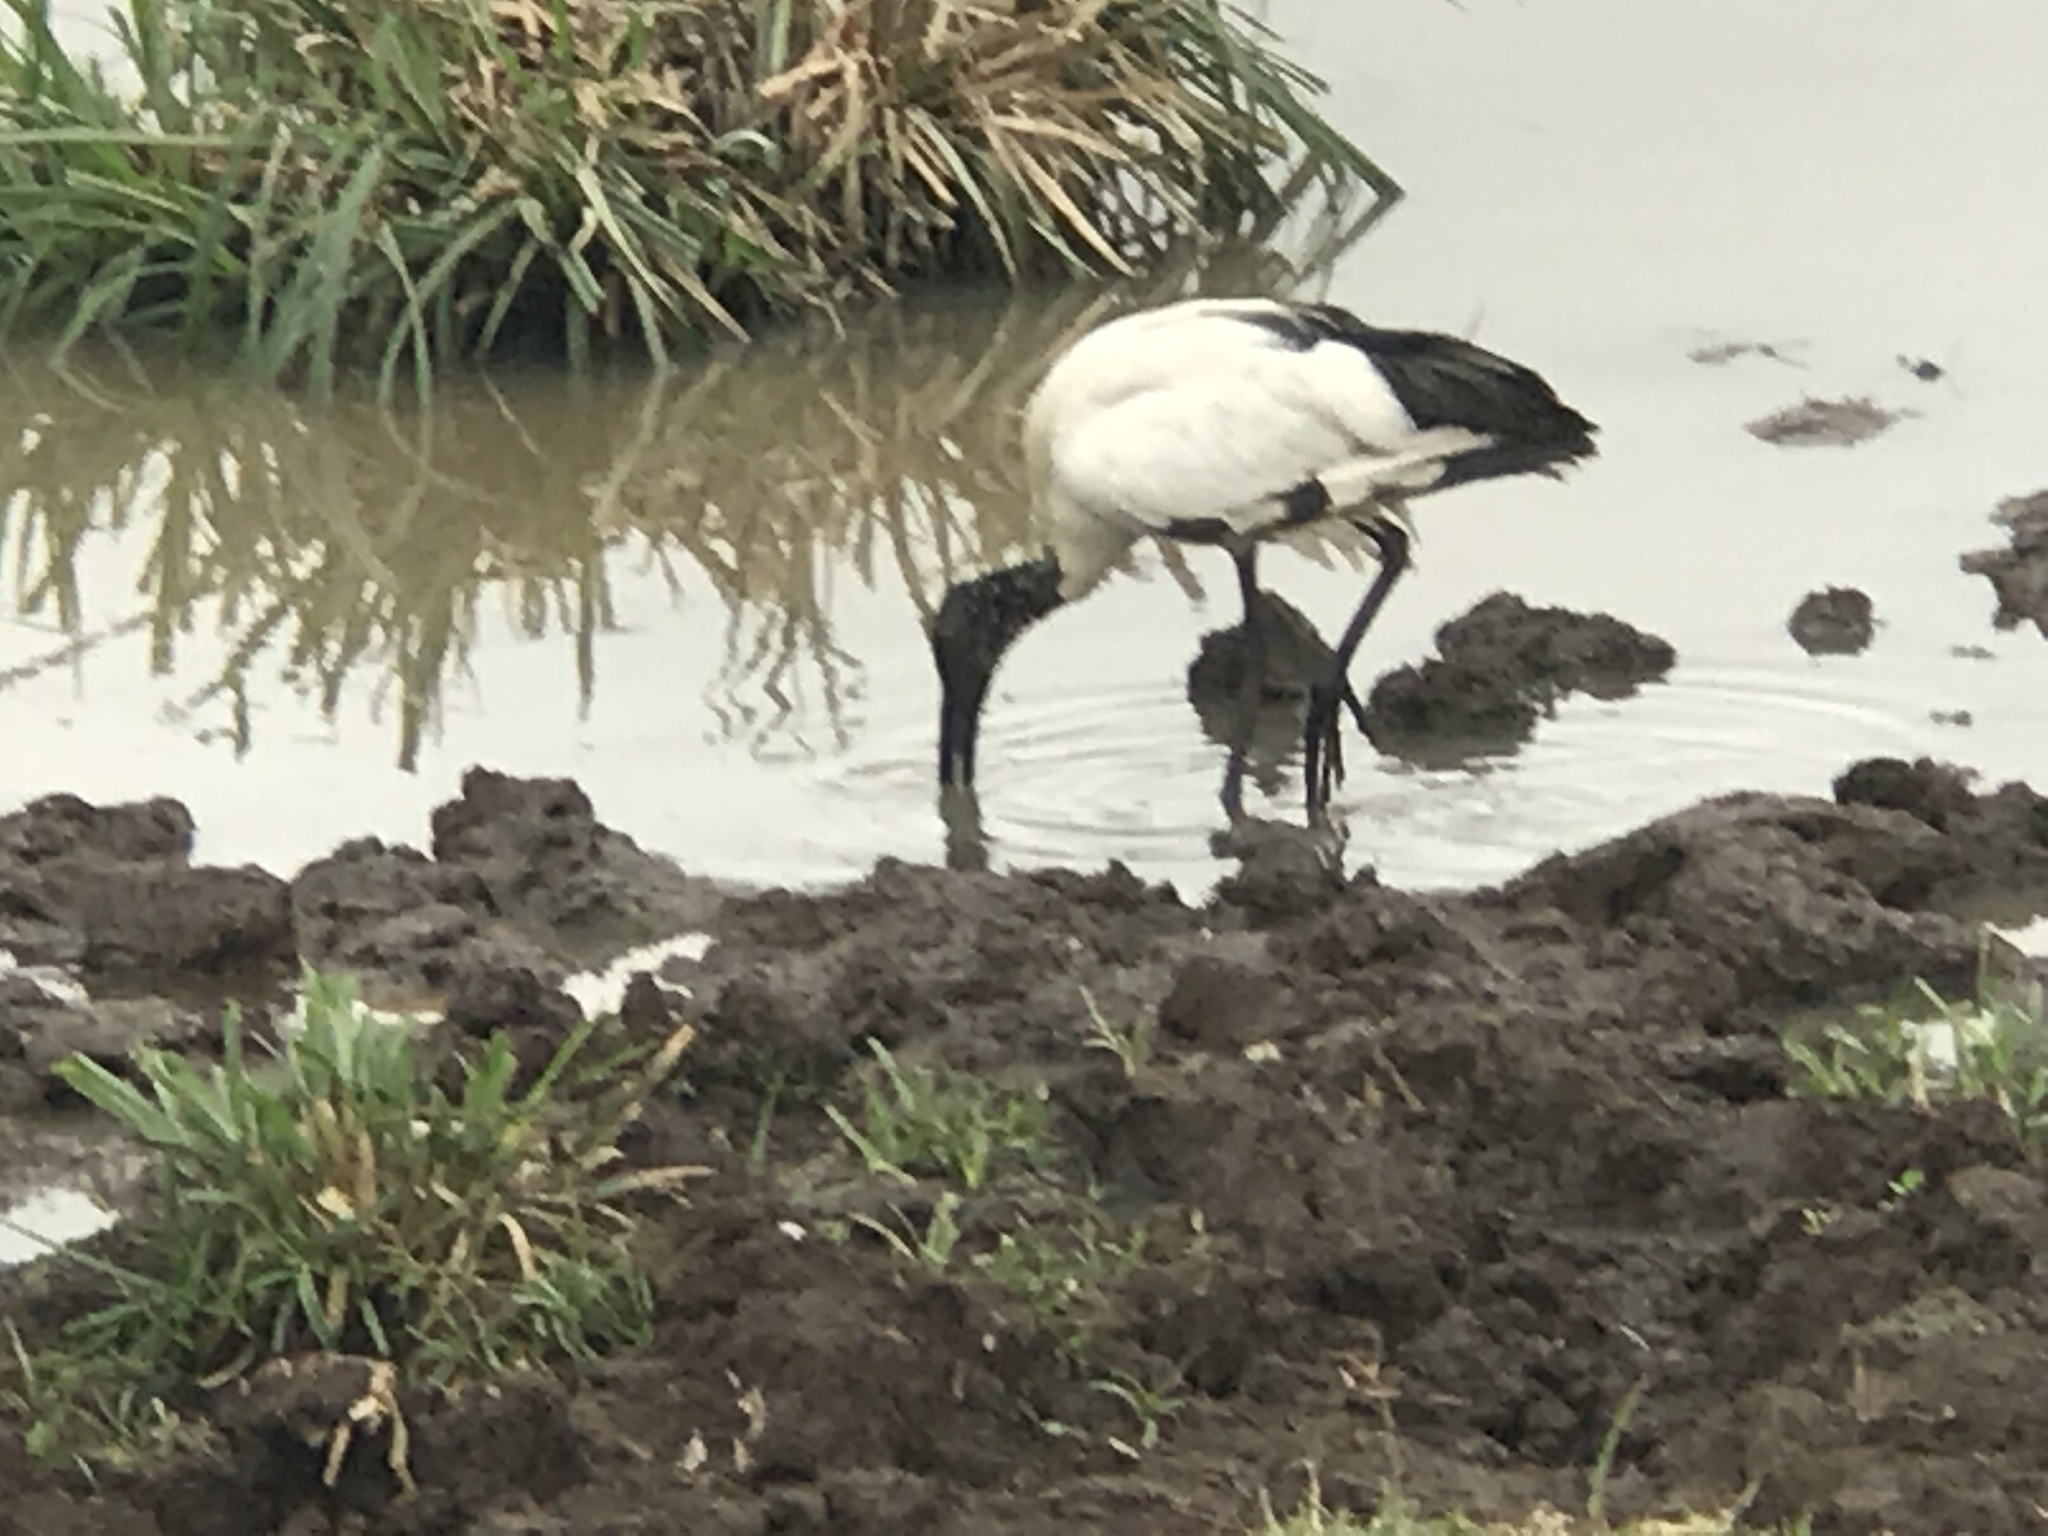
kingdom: Animalia
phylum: Chordata
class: Aves
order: Pelecaniformes
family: Threskiornithidae
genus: Threskiornis
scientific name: Threskiornis aethiopicus
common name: Sacred ibis
